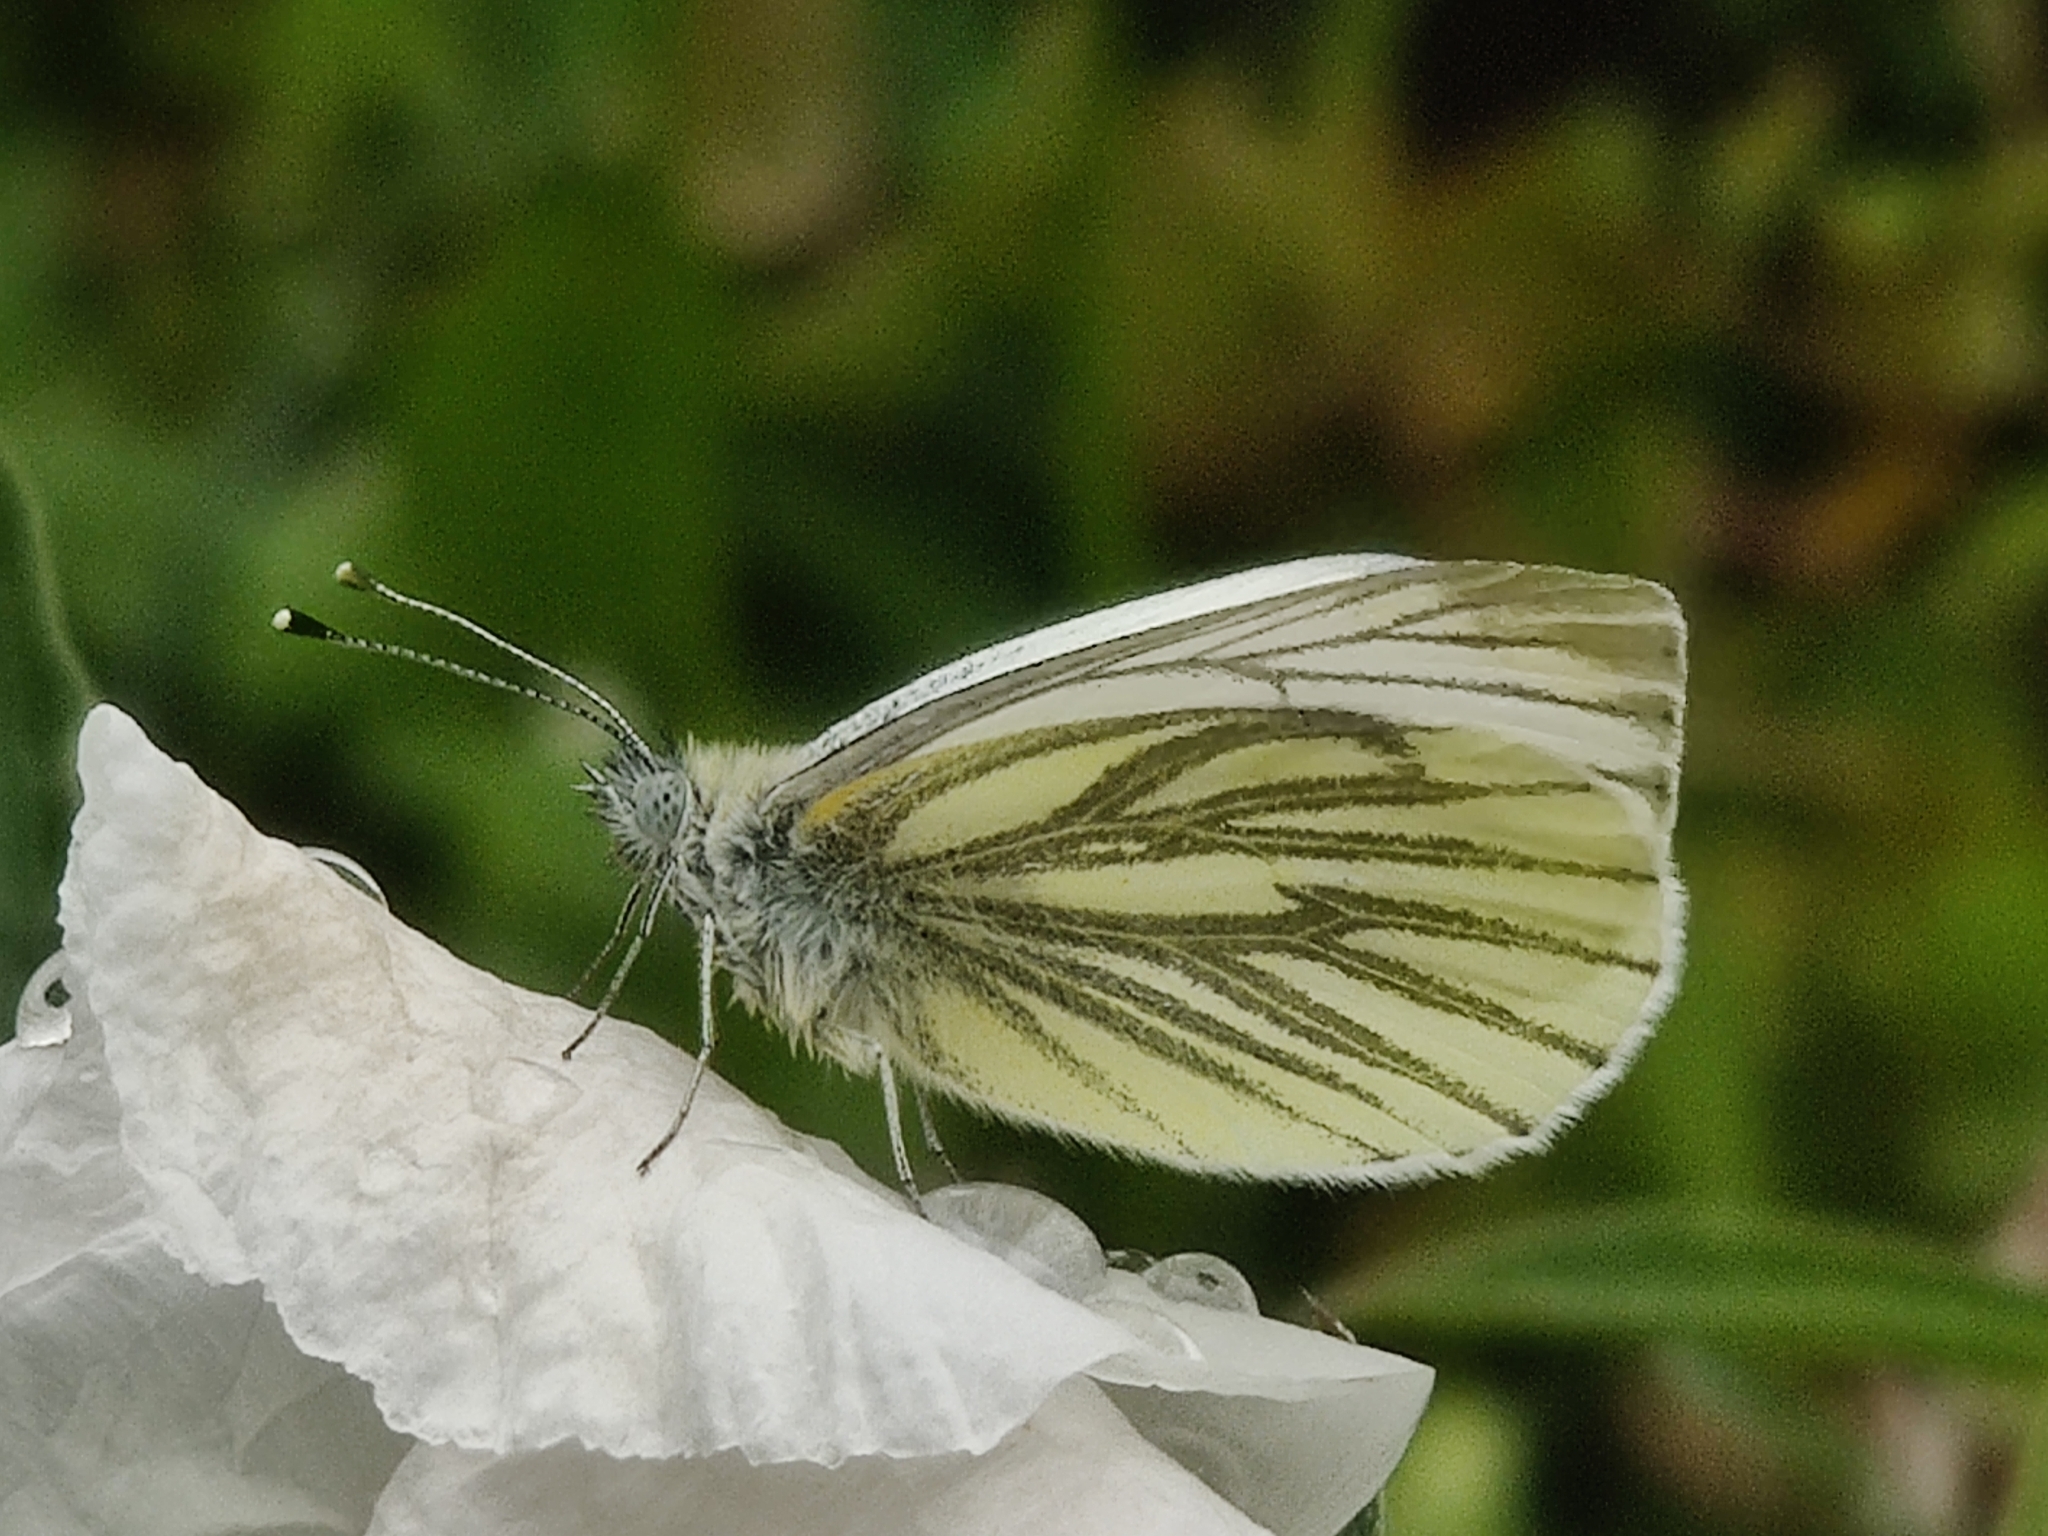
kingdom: Animalia
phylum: Arthropoda
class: Insecta
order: Lepidoptera
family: Pieridae
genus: Pieris
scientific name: Pieris napi
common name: Green-veined white
